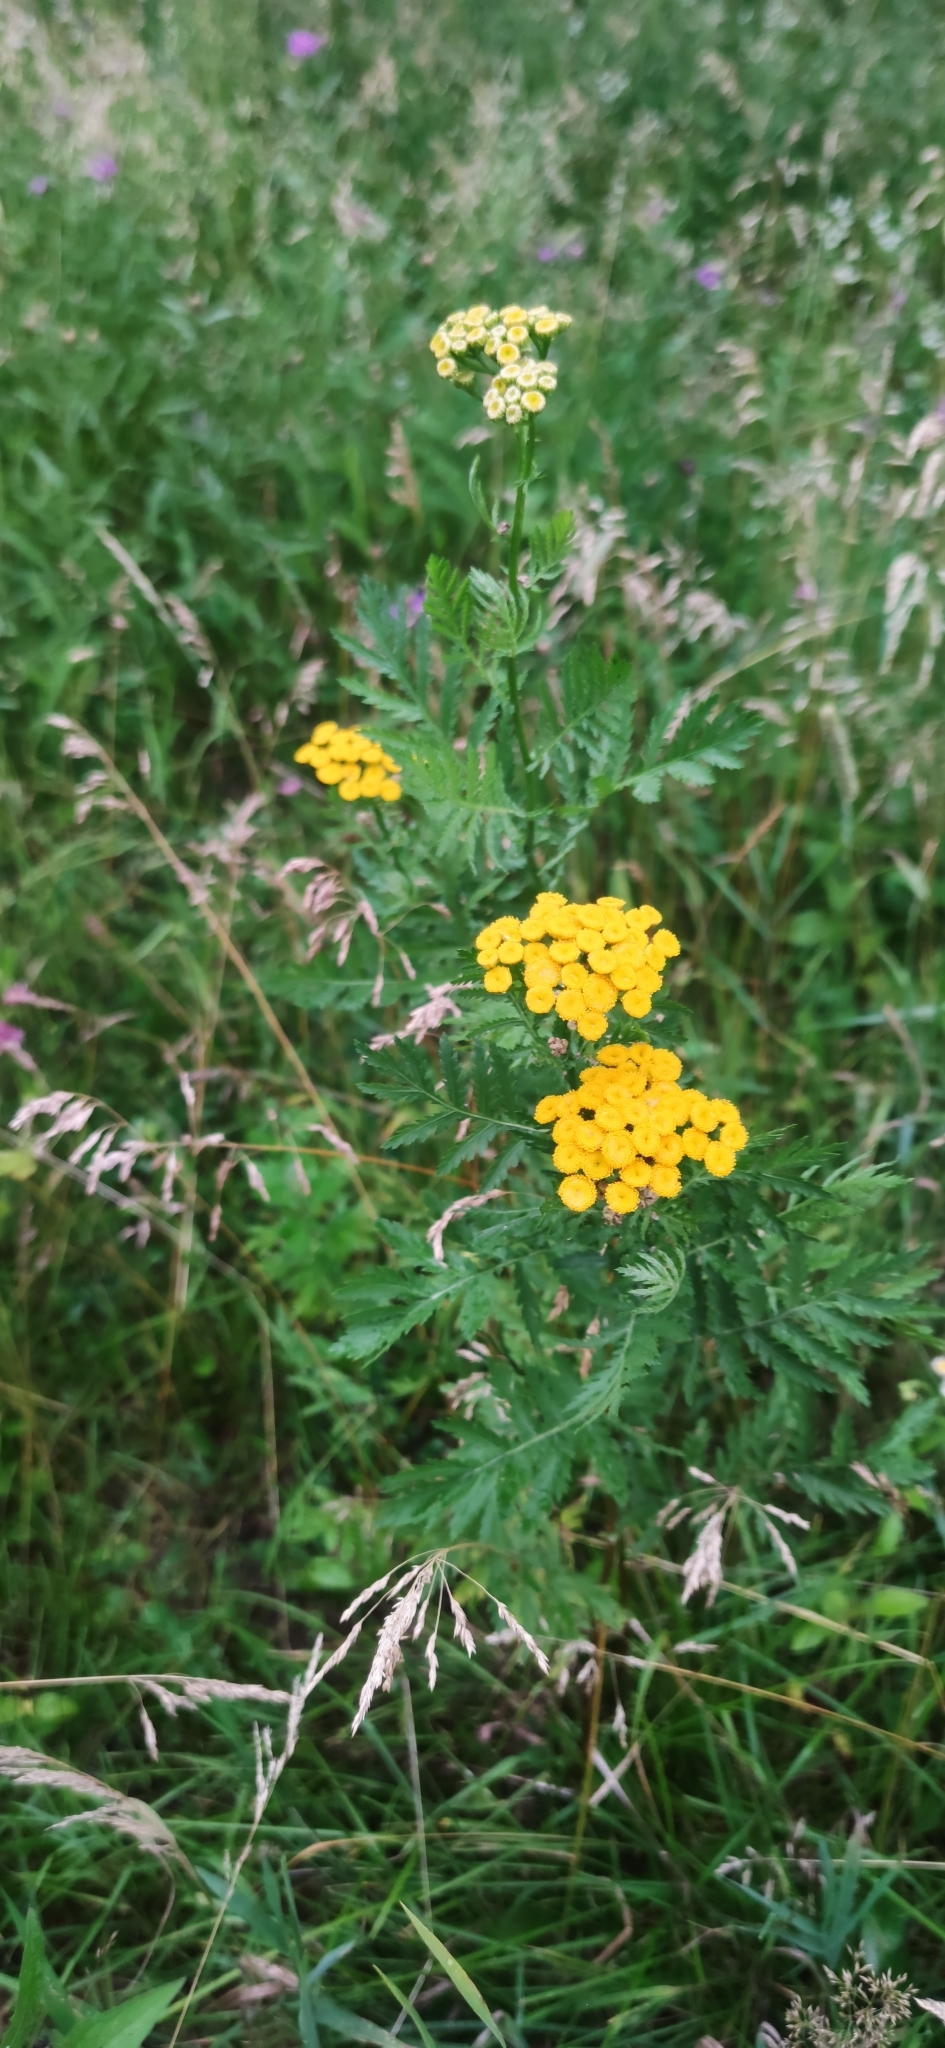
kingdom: Plantae
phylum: Tracheophyta
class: Magnoliopsida
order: Asterales
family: Asteraceae
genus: Tanacetum
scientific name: Tanacetum vulgare
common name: Common tansy
